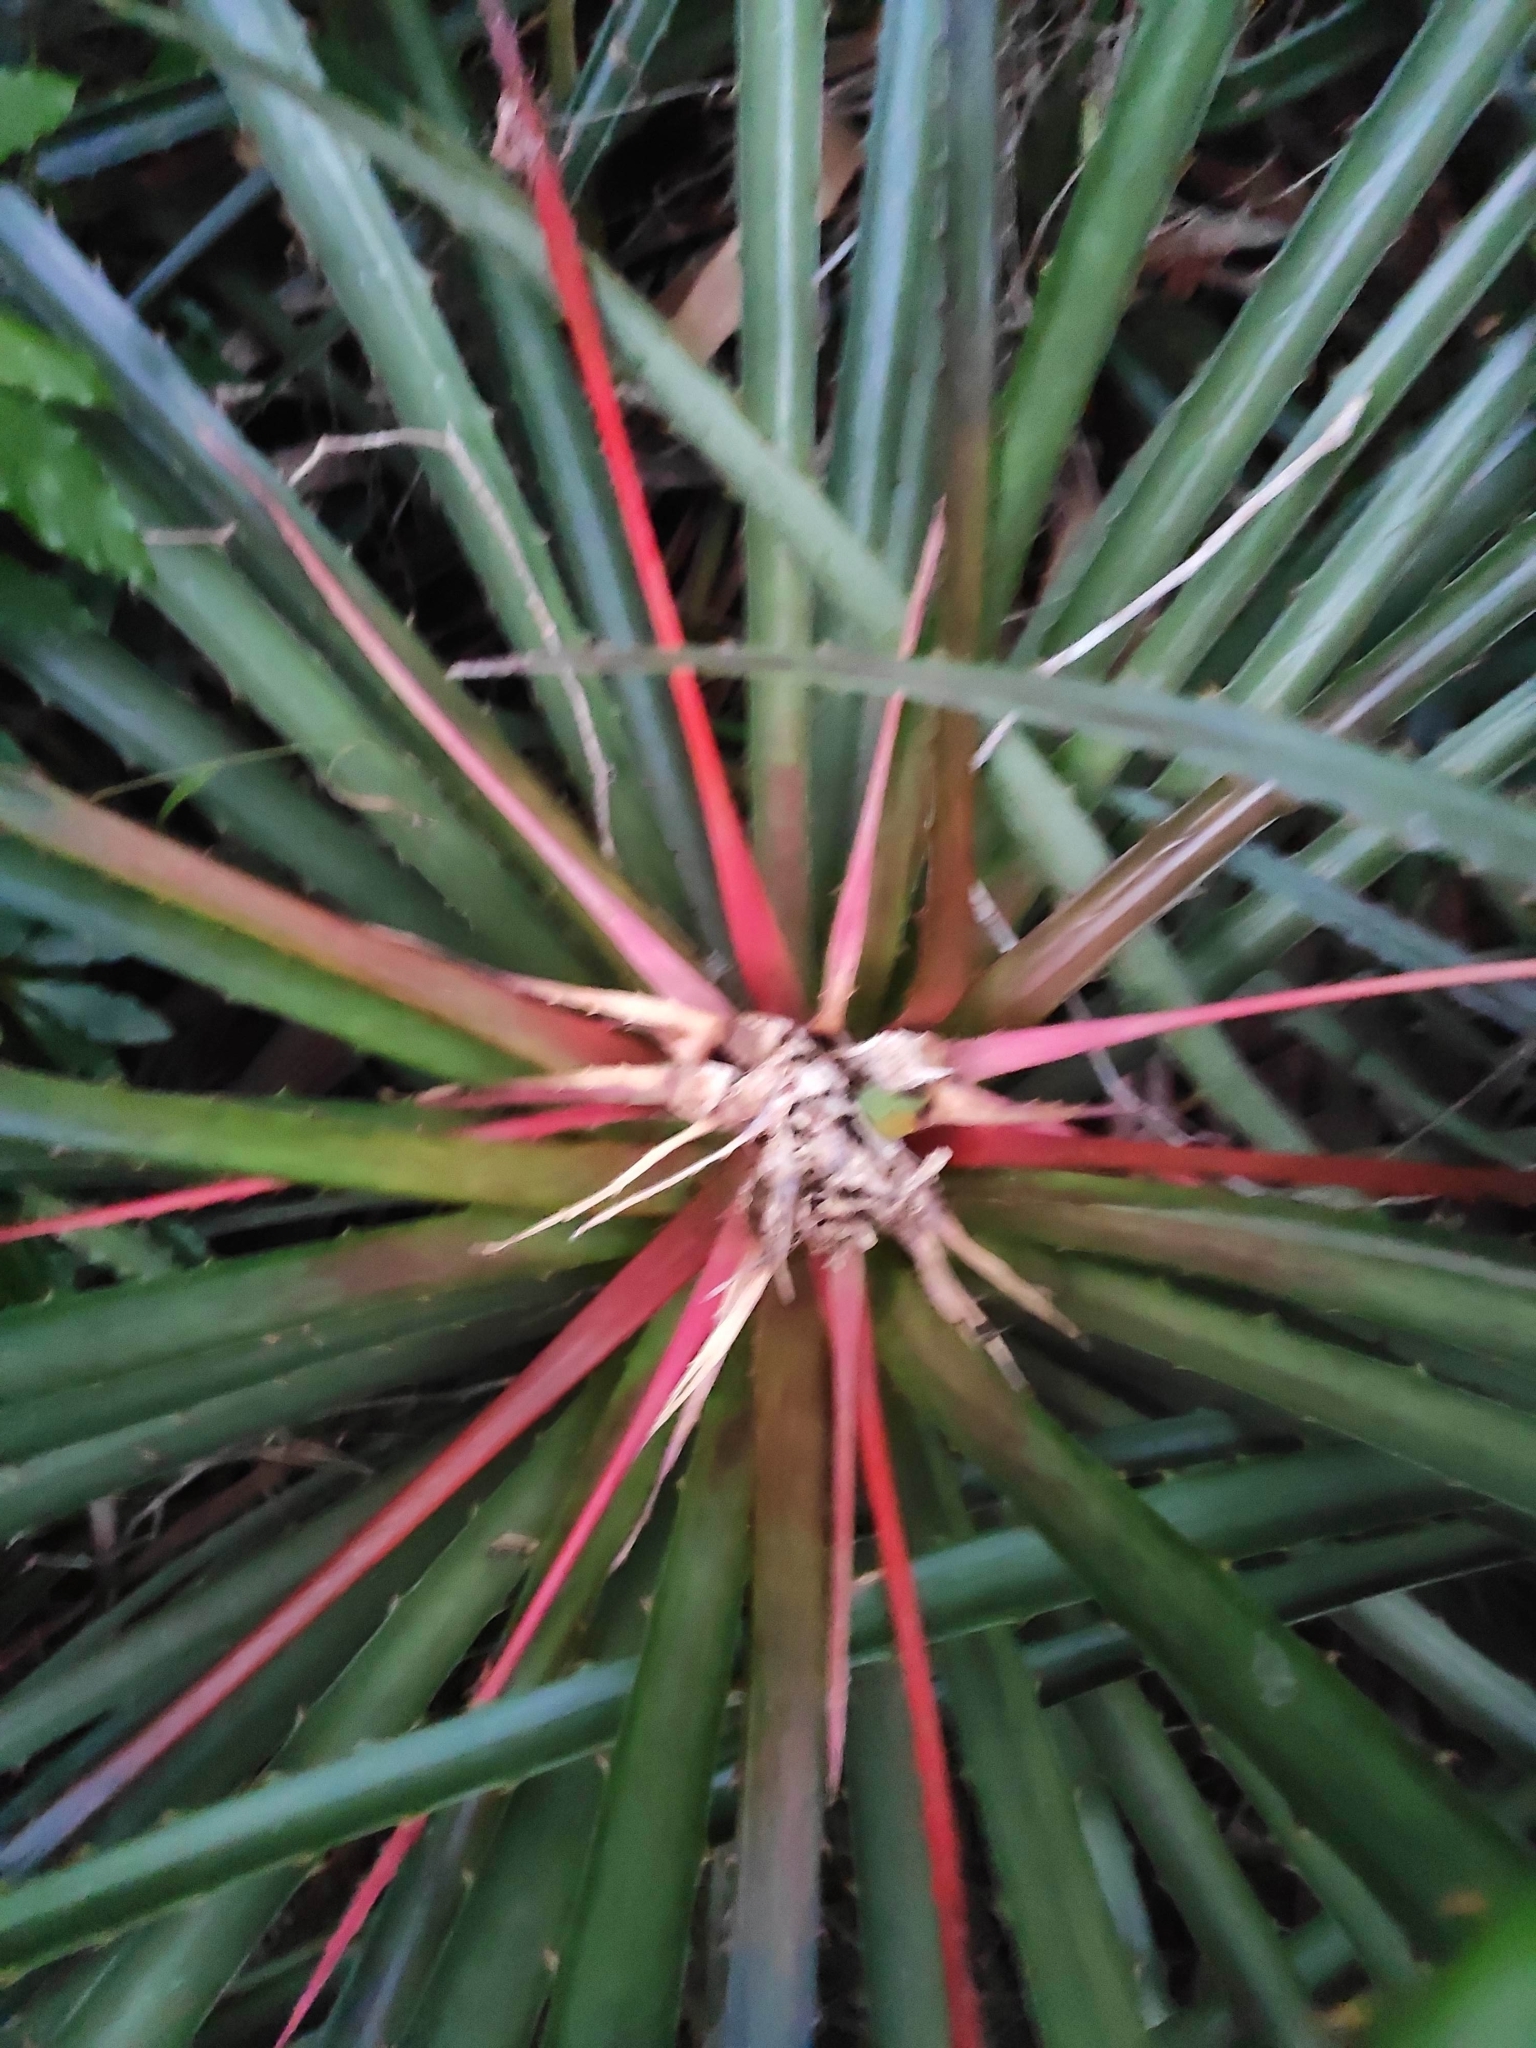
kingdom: Plantae
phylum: Tracheophyta
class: Liliopsida
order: Poales
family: Bromeliaceae
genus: Bromelia
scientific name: Bromelia antiacantha
